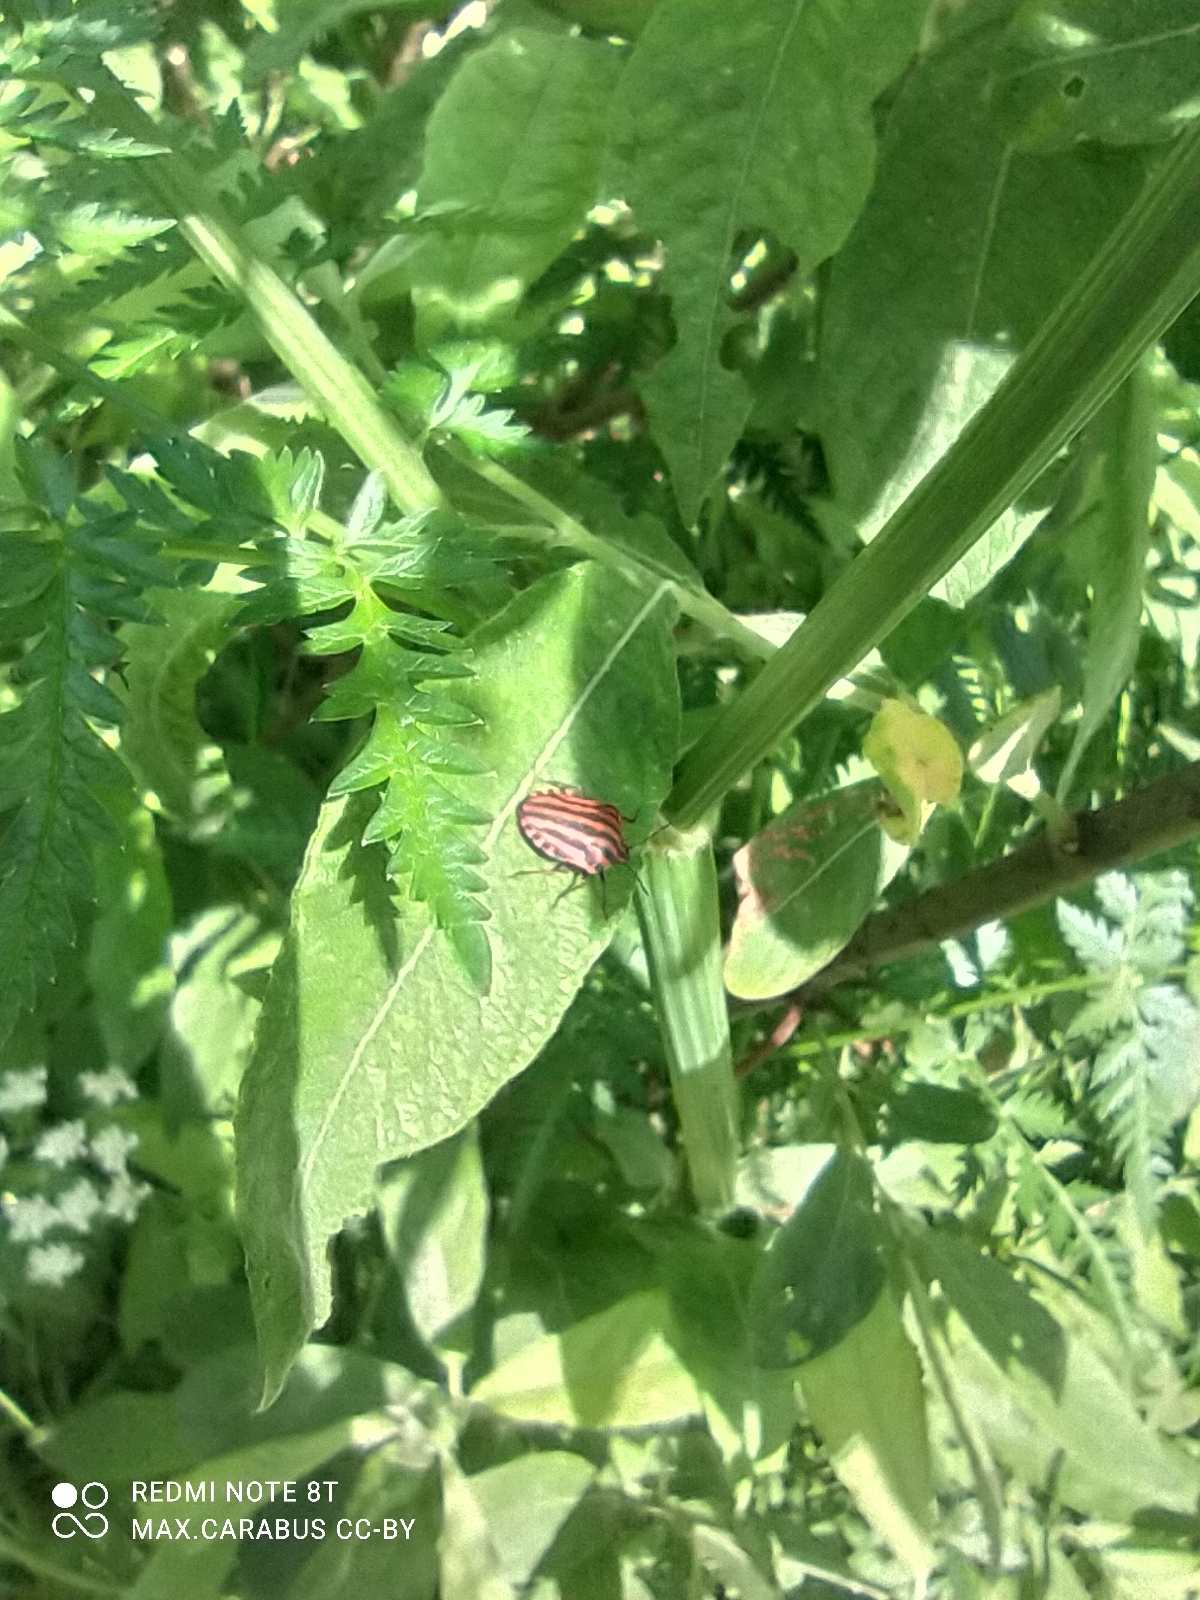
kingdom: Animalia
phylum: Arthropoda
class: Insecta
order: Hemiptera
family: Pentatomidae
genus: Graphosoma
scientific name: Graphosoma italicum
